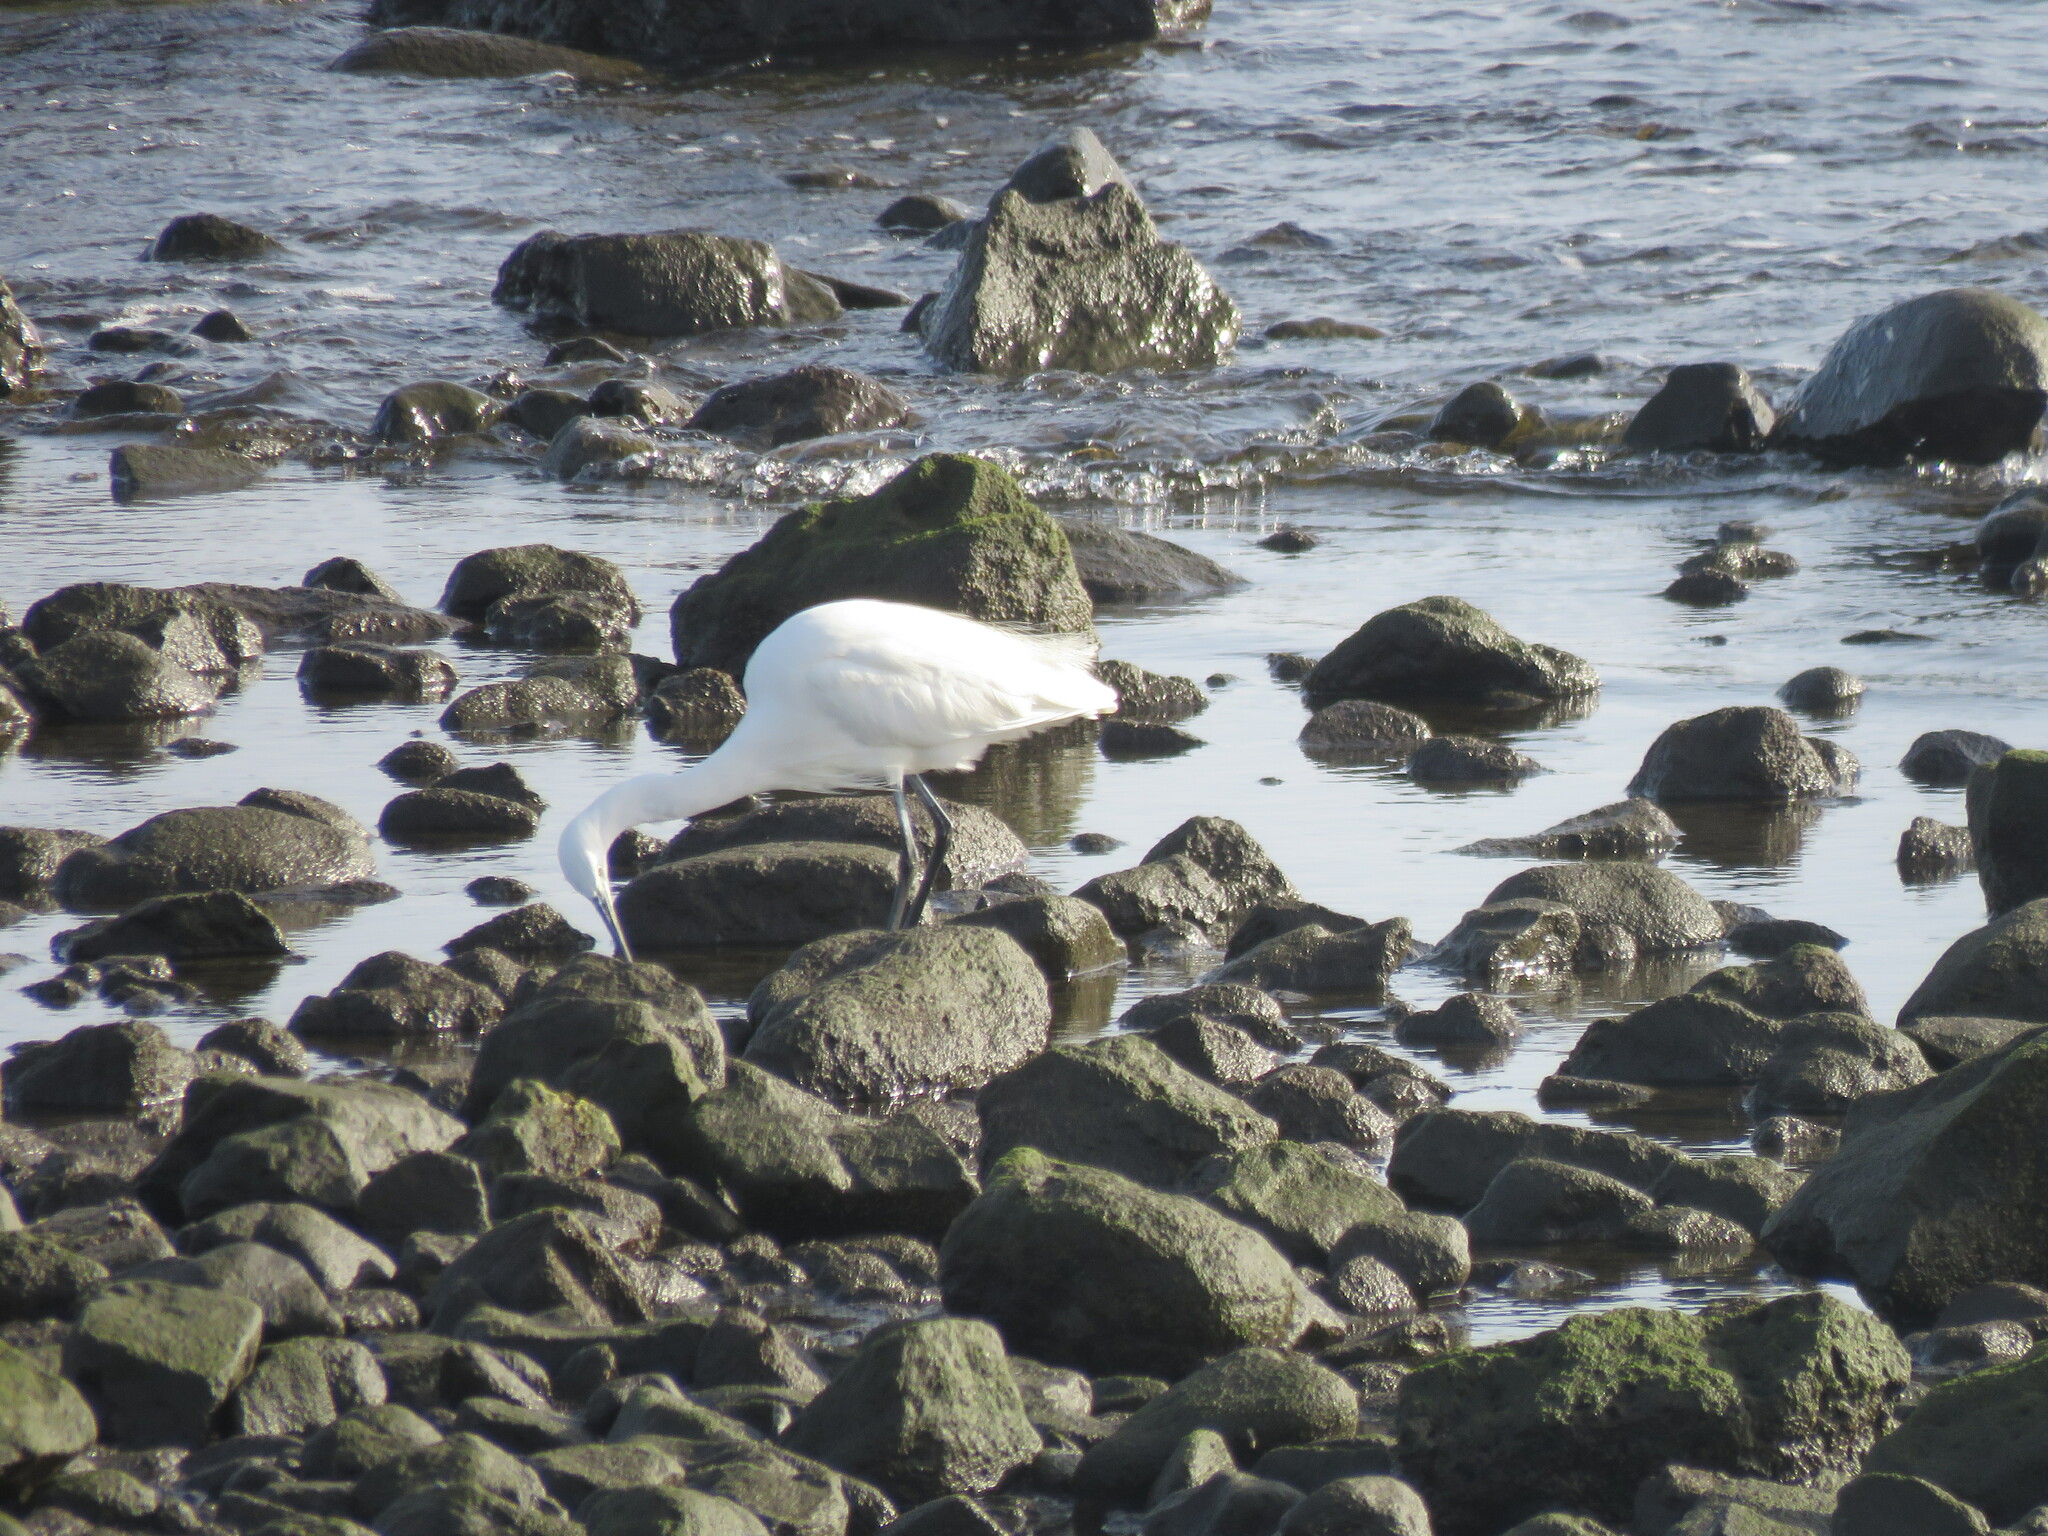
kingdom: Animalia
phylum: Chordata
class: Aves
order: Pelecaniformes
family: Ardeidae
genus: Egretta
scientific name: Egretta garzetta
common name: Little egret
